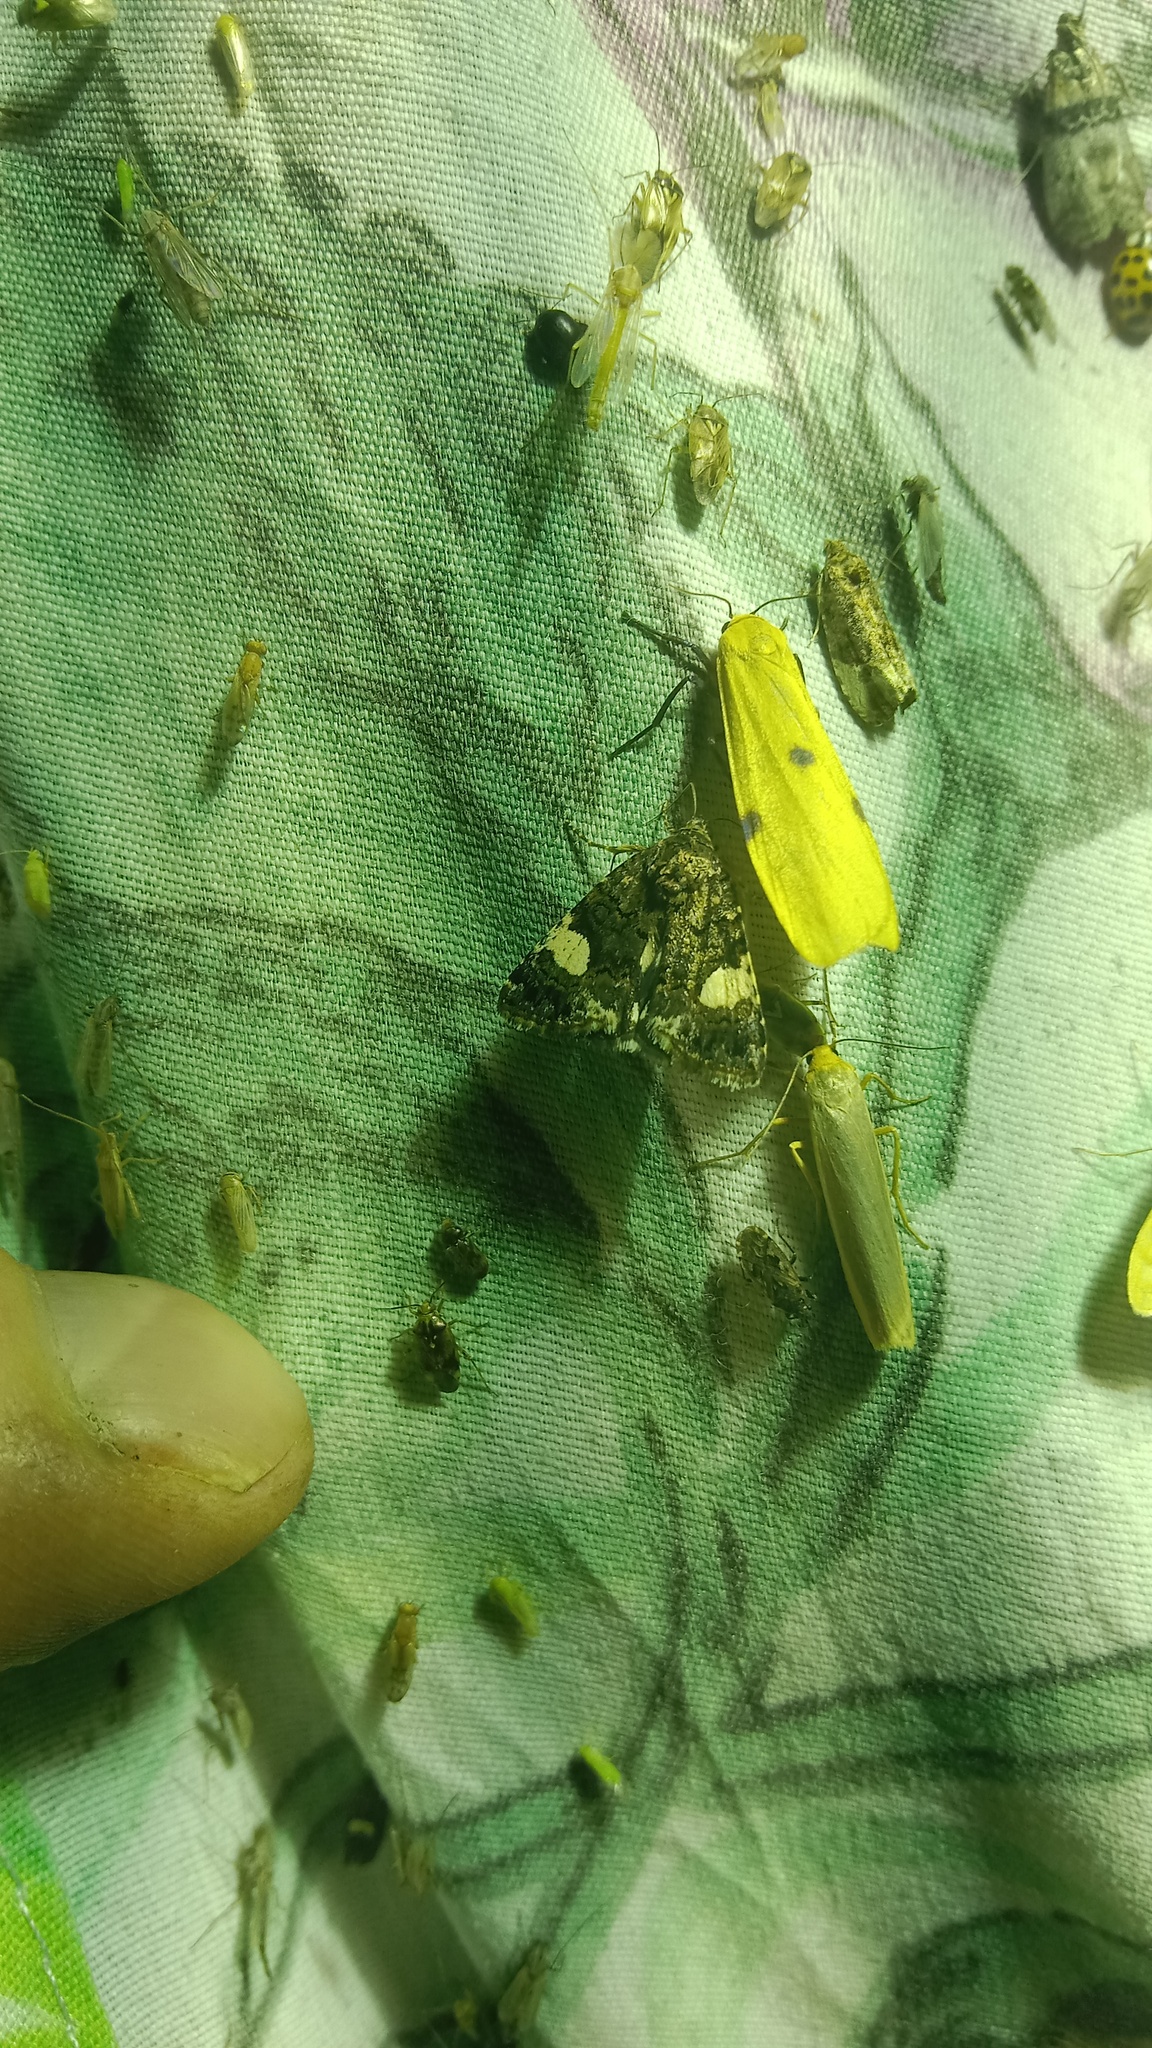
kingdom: Animalia
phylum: Arthropoda
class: Insecta
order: Lepidoptera
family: Erebidae
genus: Lithosia
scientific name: Lithosia quadra
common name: Four-spotted footman
